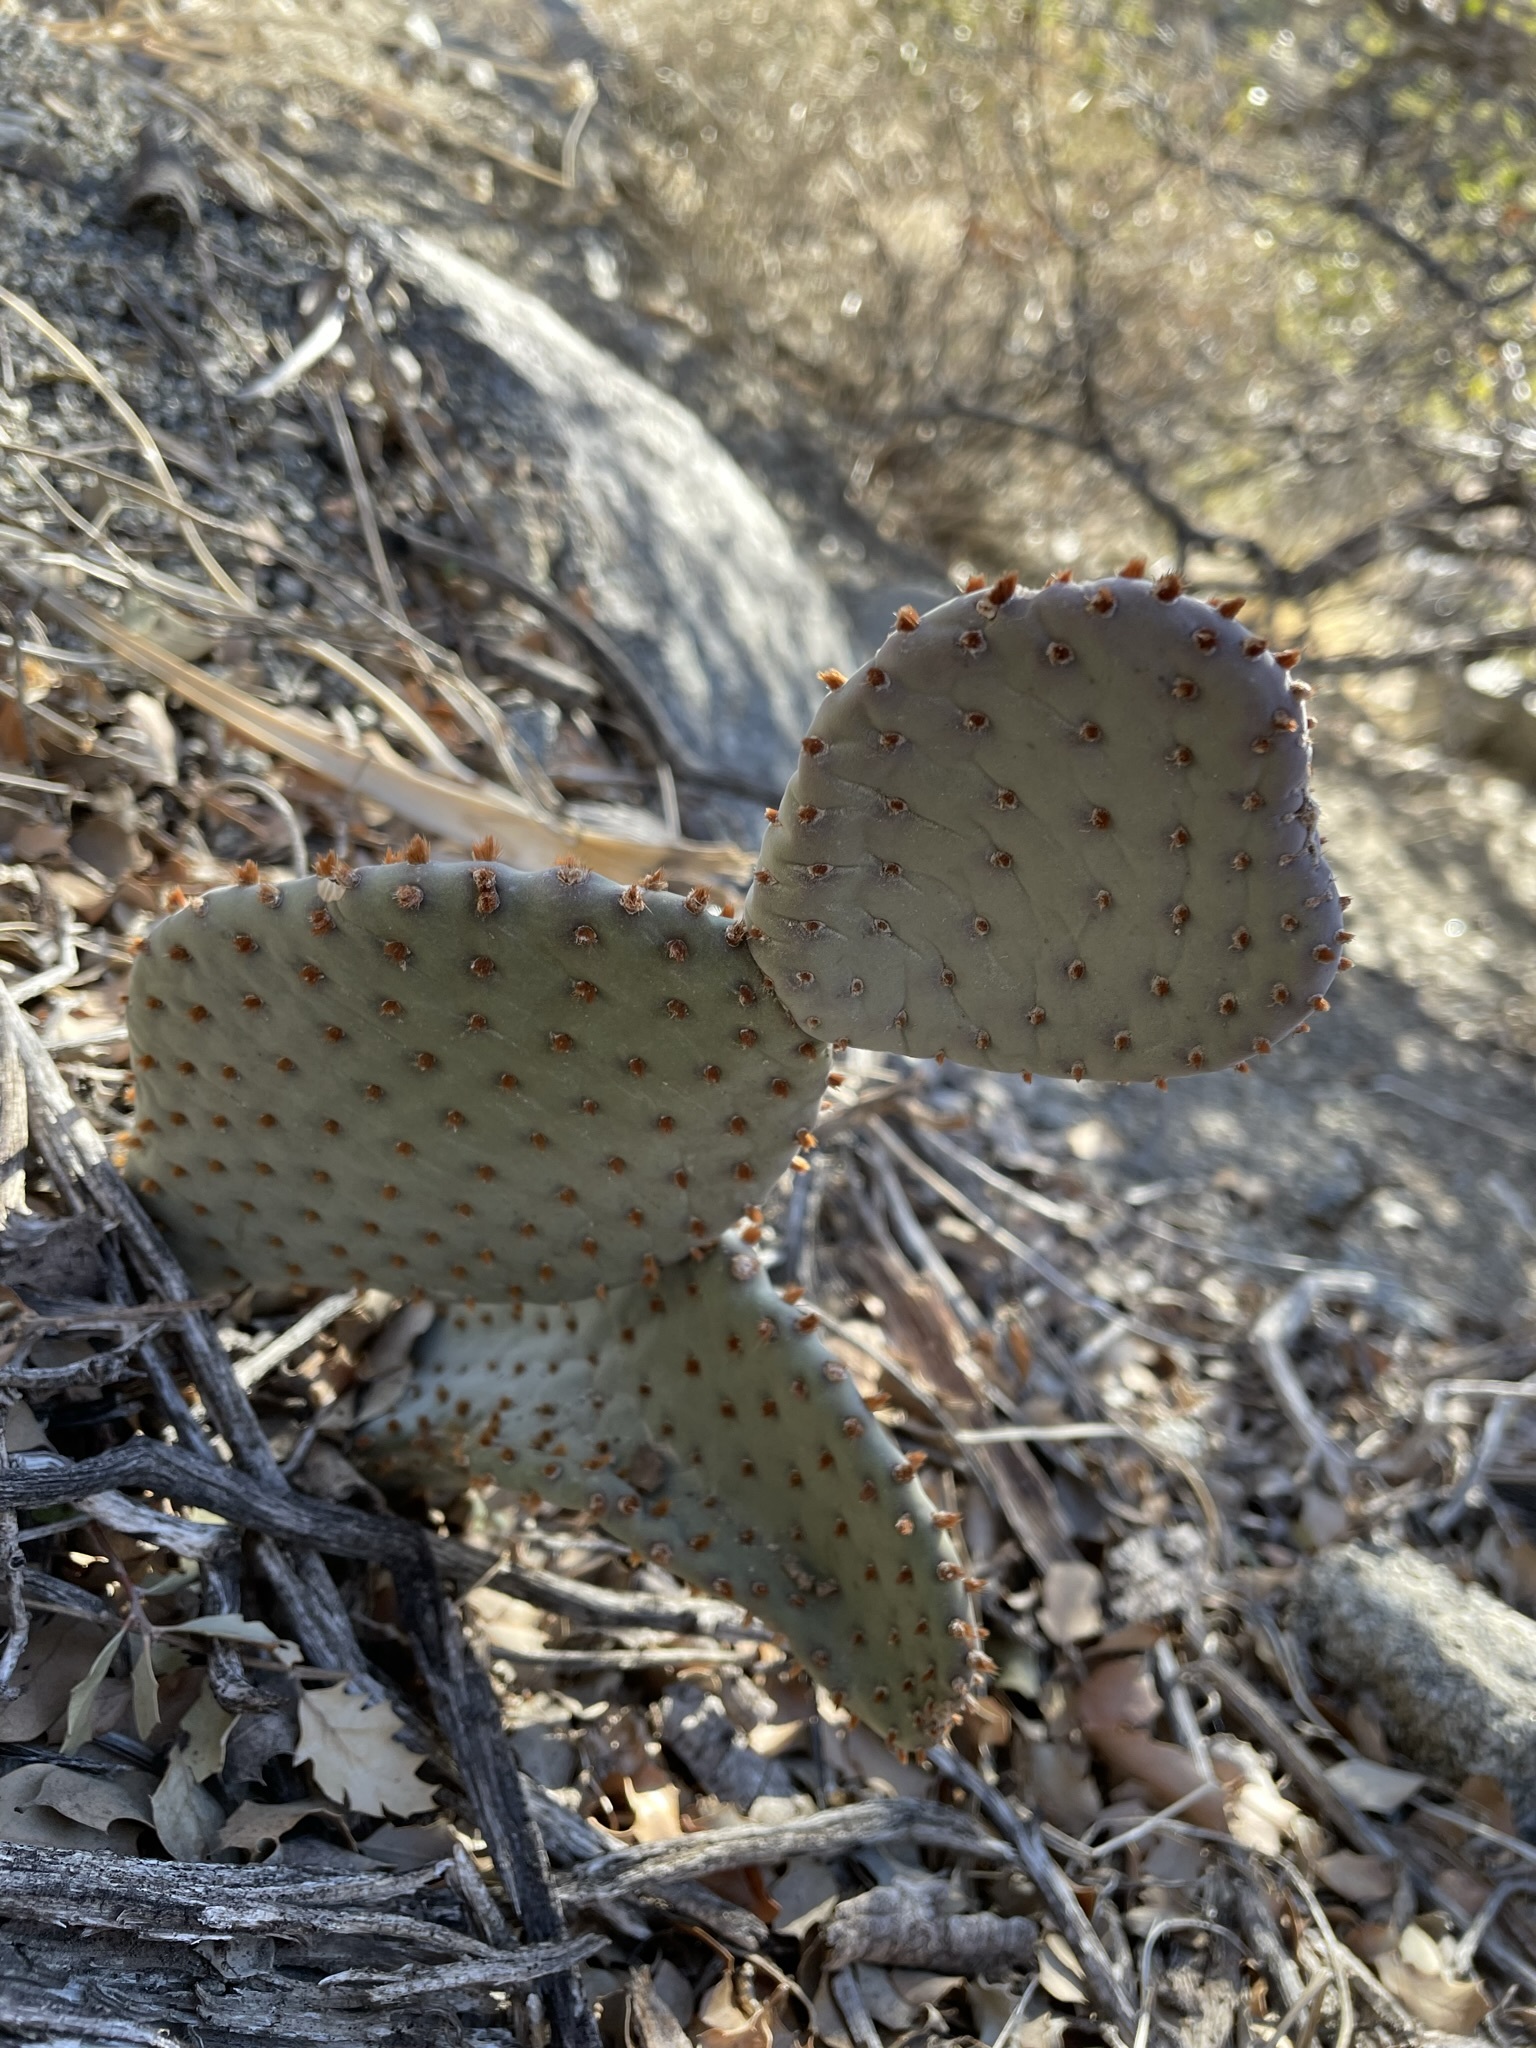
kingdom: Plantae
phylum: Tracheophyta
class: Magnoliopsida
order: Caryophyllales
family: Cactaceae
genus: Opuntia
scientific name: Opuntia basilaris
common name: Beavertail prickly-pear
